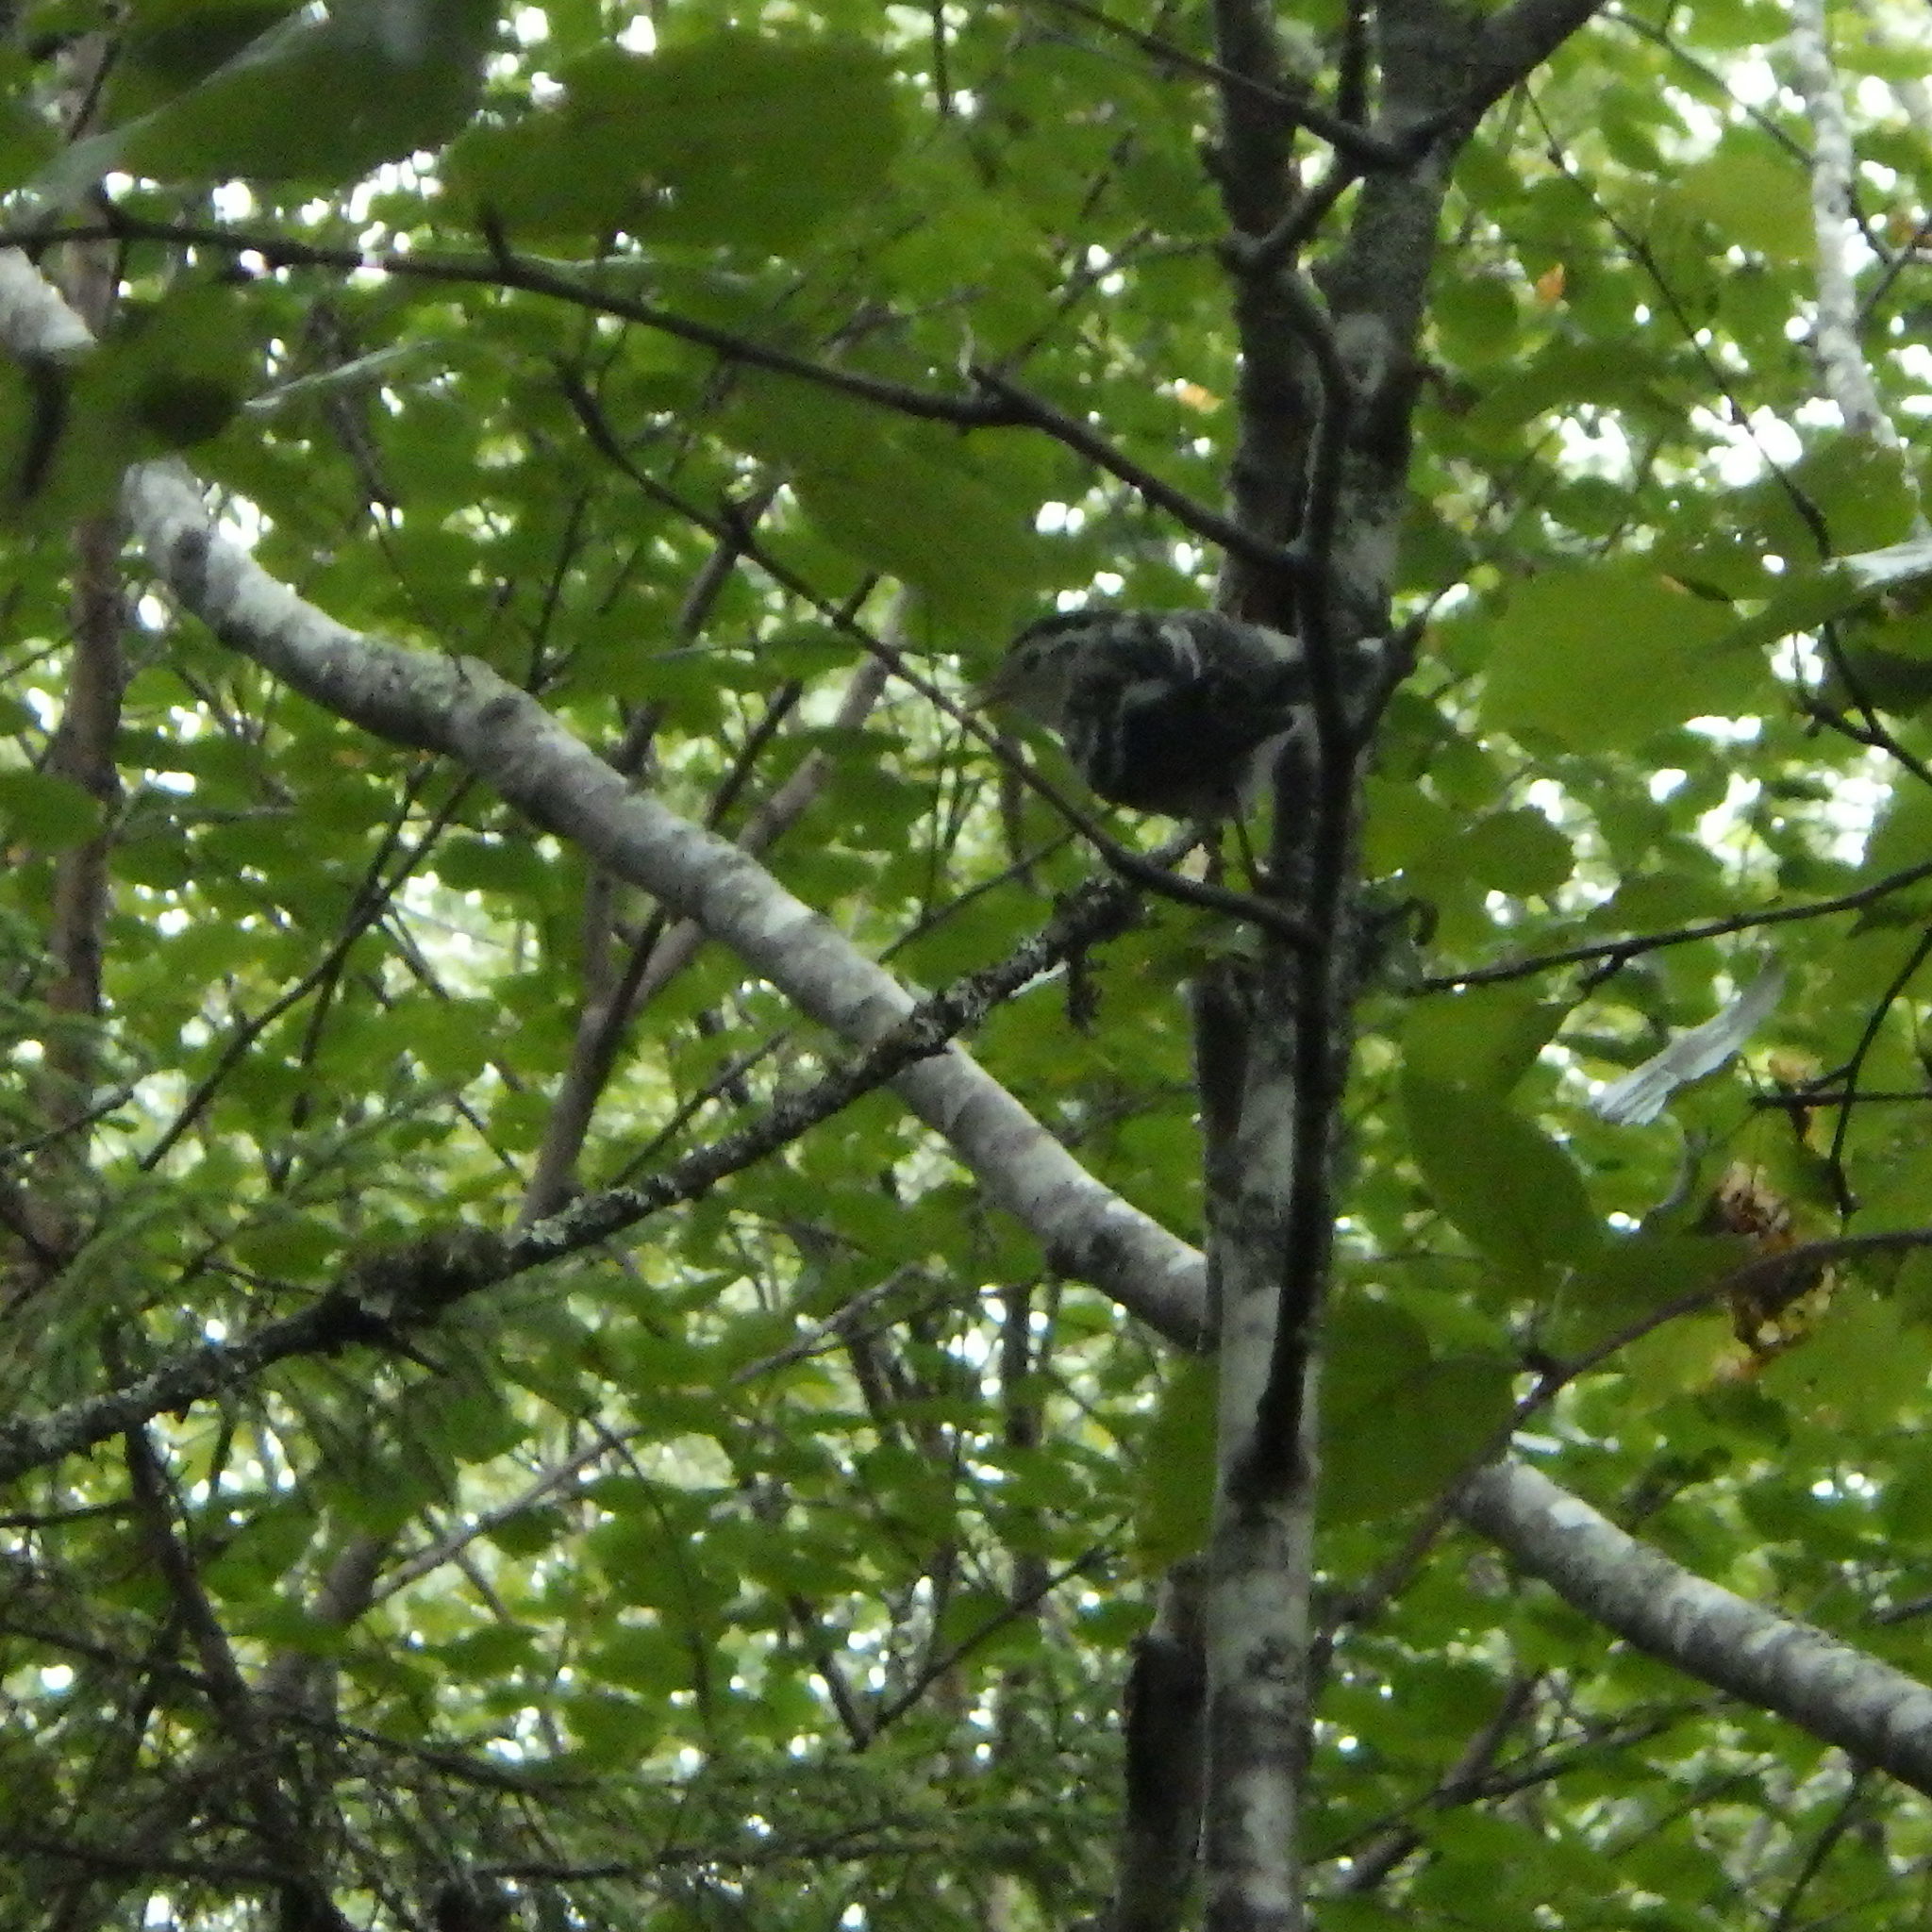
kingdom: Animalia
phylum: Chordata
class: Aves
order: Passeriformes
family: Parulidae
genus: Mniotilta
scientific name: Mniotilta varia
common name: Black-and-white warbler
